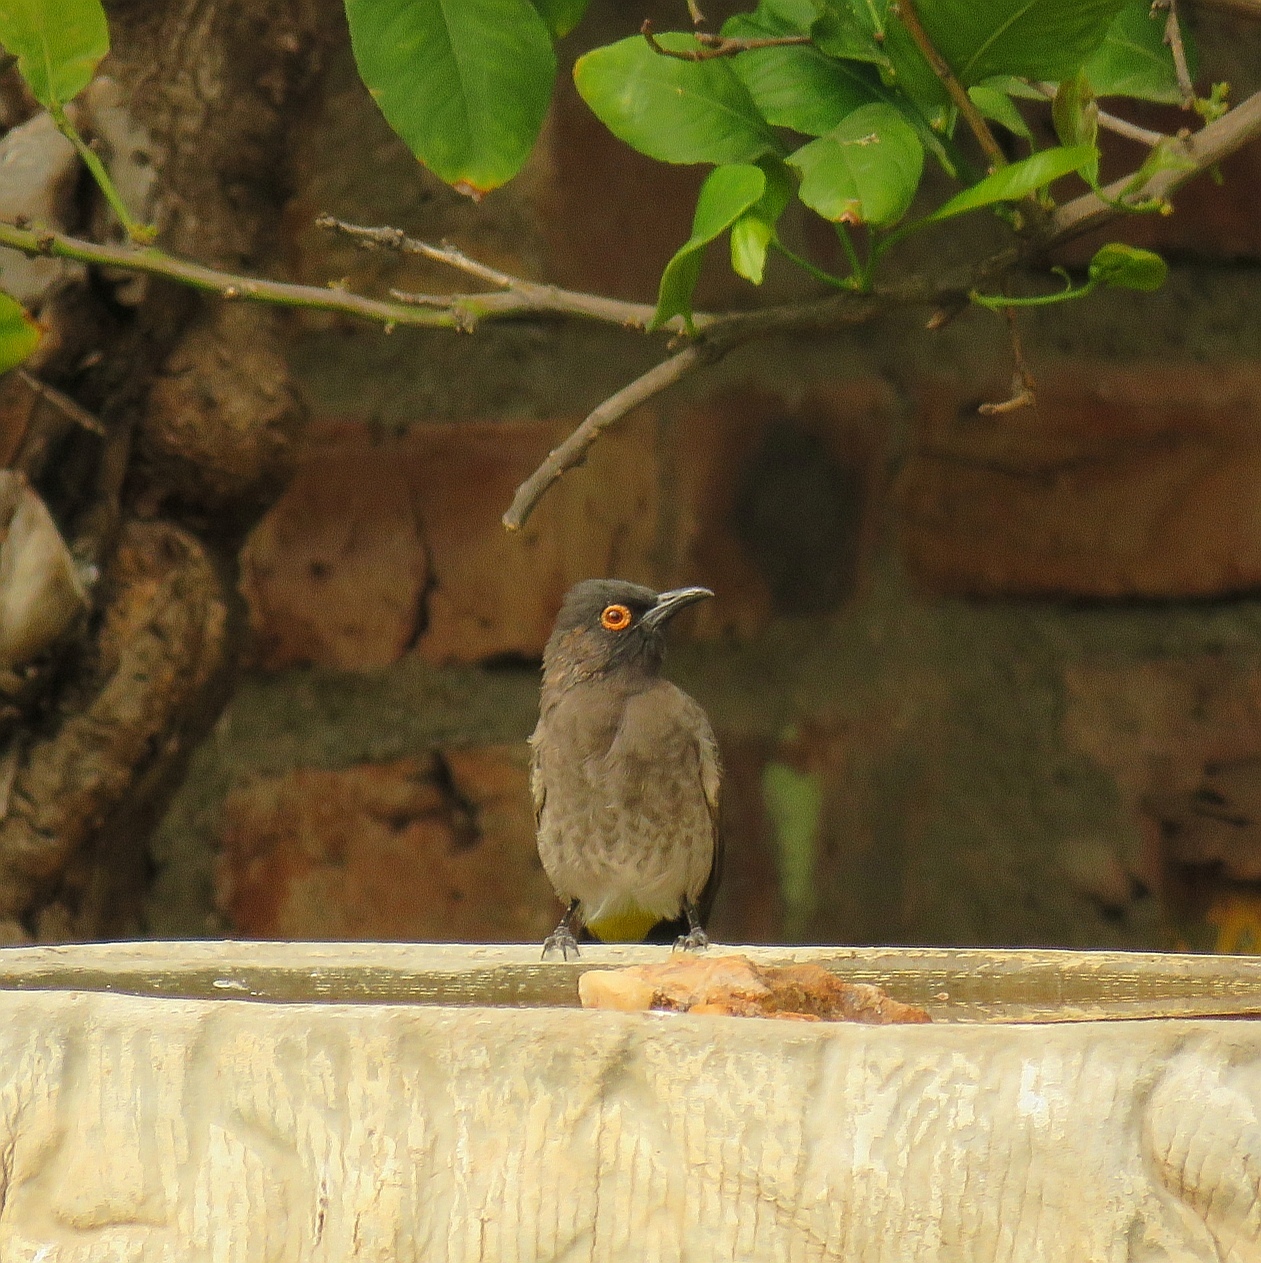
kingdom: Animalia
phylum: Chordata
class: Aves
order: Passeriformes
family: Pycnonotidae
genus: Pycnonotus
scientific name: Pycnonotus nigricans
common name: African red-eyed bulbul
